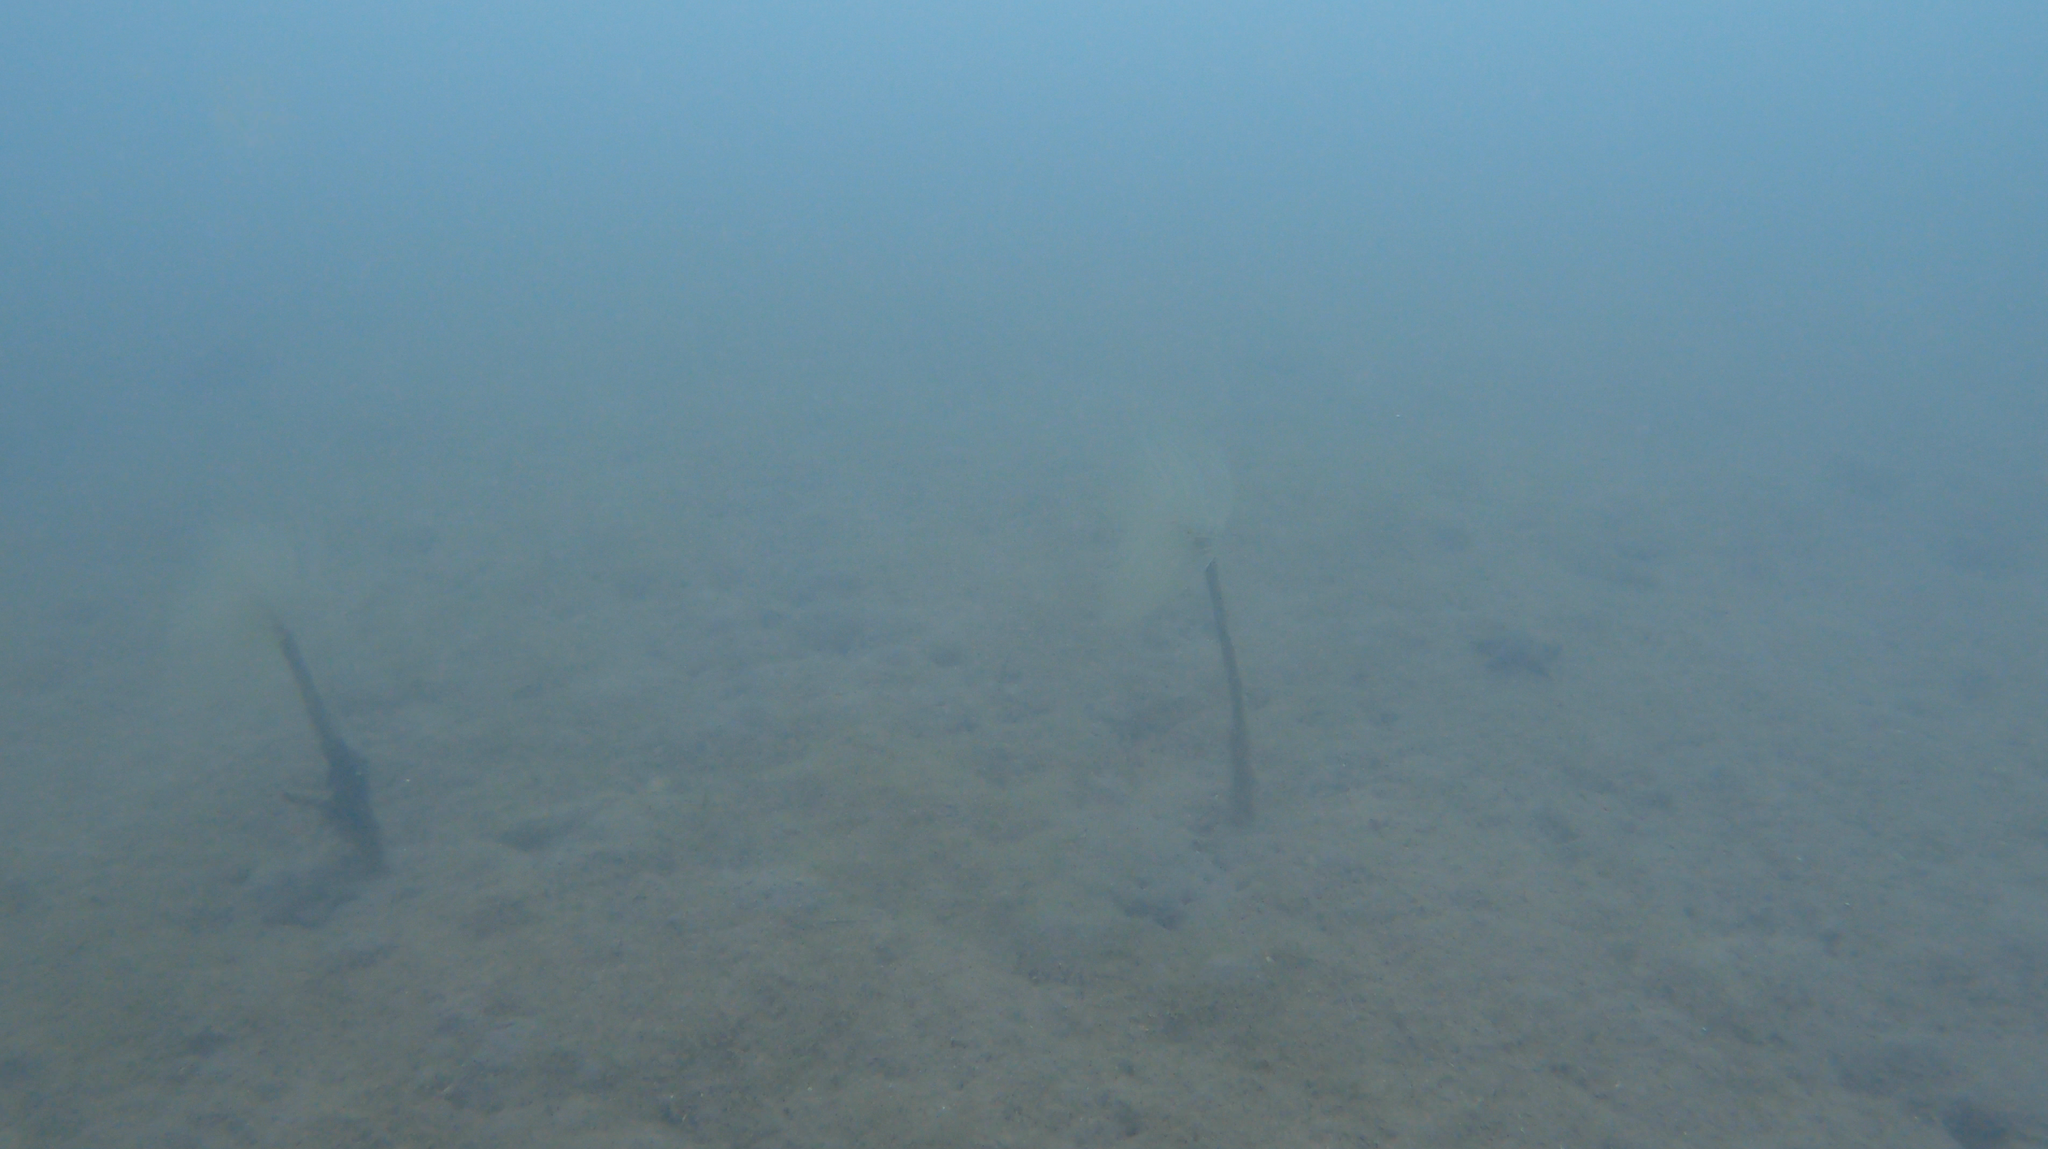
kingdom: Animalia
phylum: Annelida
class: Polychaeta
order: Sabellida
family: Sabellidae
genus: Sabella
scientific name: Sabella spallanzanii
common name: Feather duster worm
